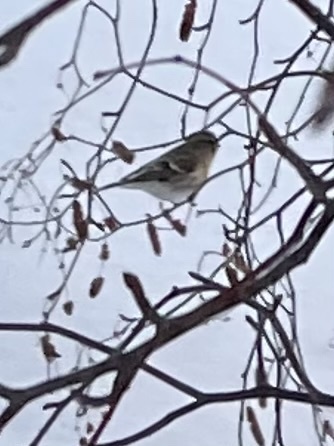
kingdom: Animalia
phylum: Chordata
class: Aves
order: Passeriformes
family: Fringillidae
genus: Acanthis
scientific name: Acanthis flammea
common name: Common redpoll
